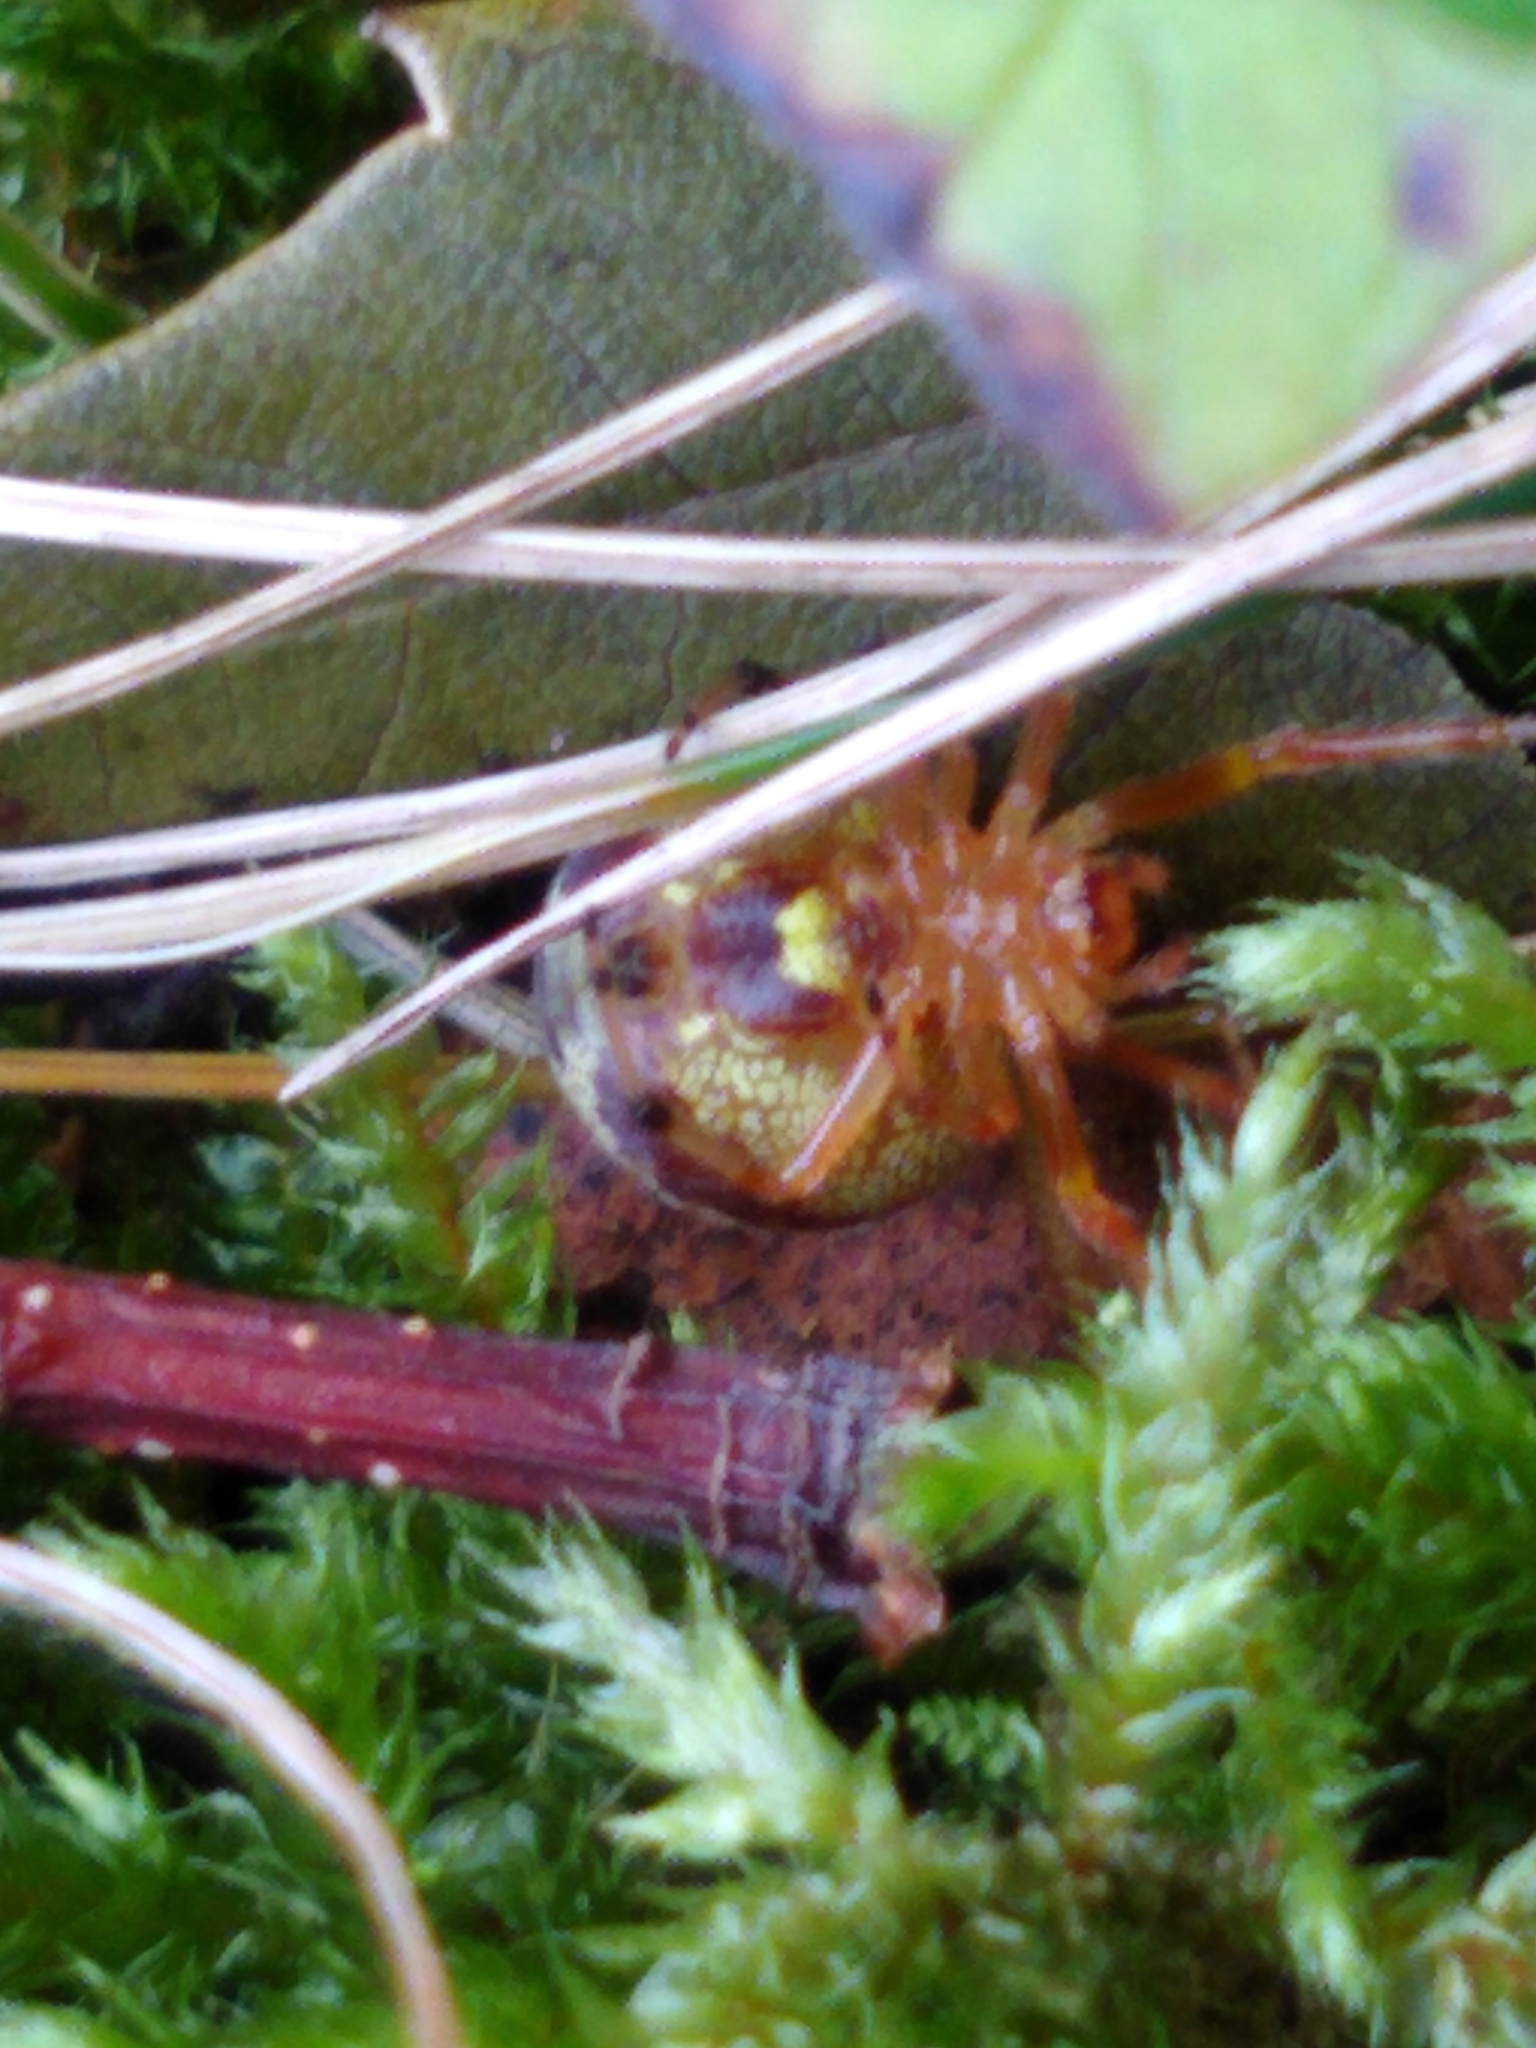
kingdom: Animalia
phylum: Arthropoda
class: Arachnida
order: Araneae
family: Araneidae
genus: Araneus
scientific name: Araneus thaddeus
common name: Lattice orbweaver
